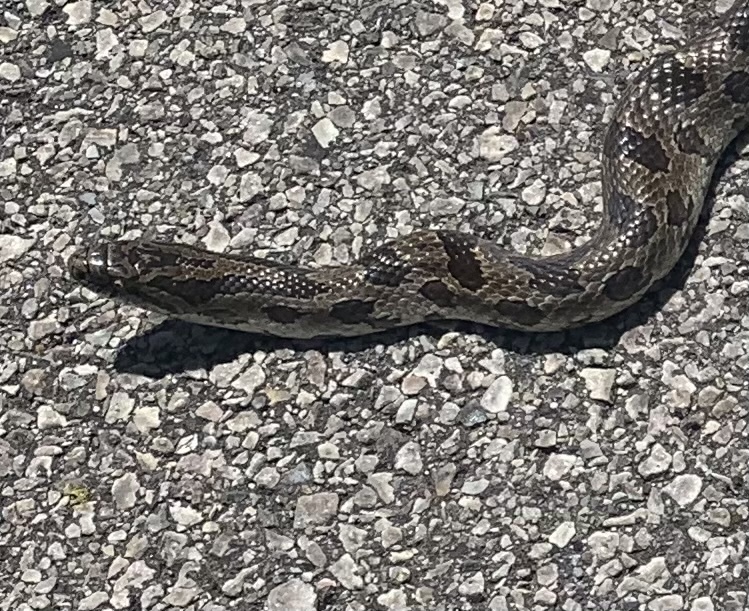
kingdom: Animalia
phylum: Chordata
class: Squamata
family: Colubridae
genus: Lampropeltis
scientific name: Lampropeltis calligaster
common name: Prairie kingsnake
